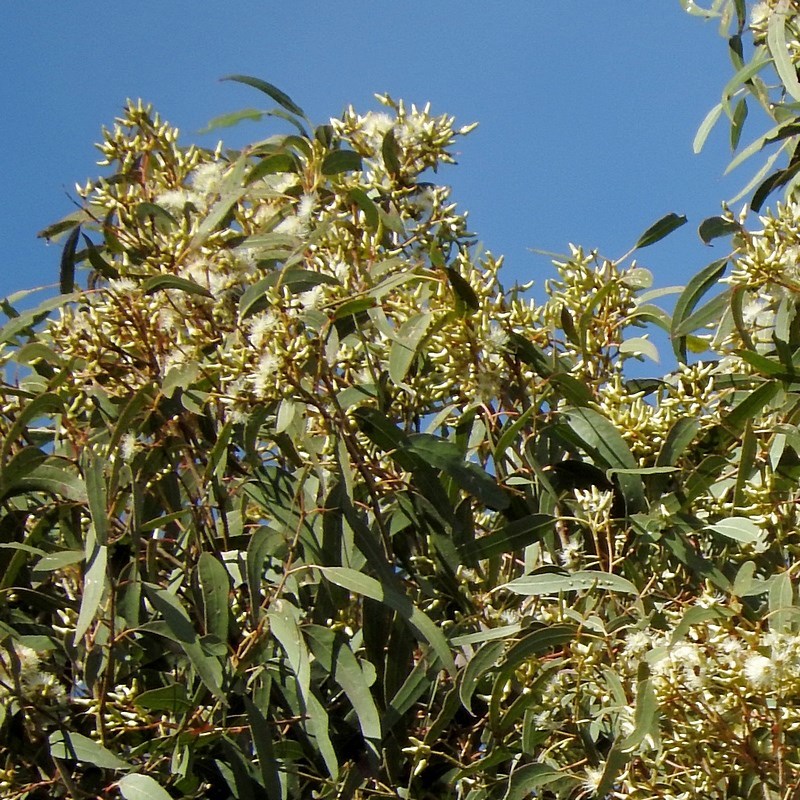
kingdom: Plantae
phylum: Tracheophyta
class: Magnoliopsida
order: Myrtales
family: Myrtaceae
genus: Eucalyptus
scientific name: Eucalyptus tereticornis
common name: Forest redgum
